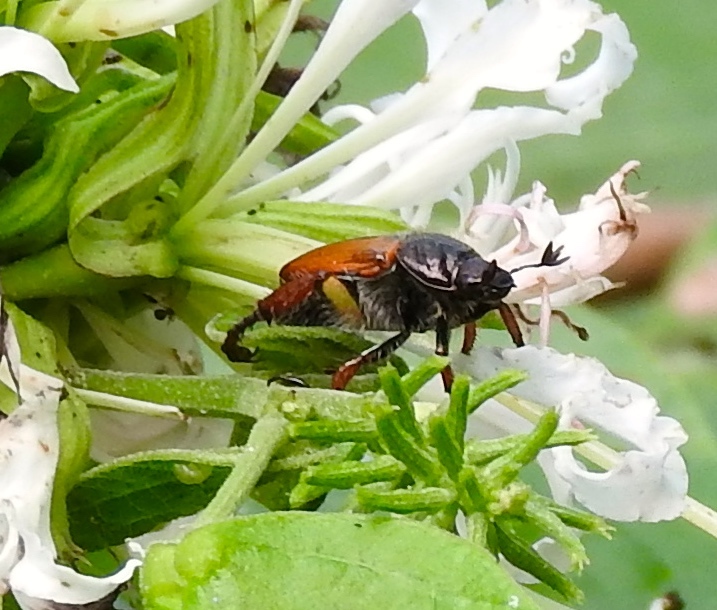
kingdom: Animalia
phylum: Arthropoda
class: Insecta
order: Coleoptera
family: Scarabaeidae
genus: Strigoderma
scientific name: Strigoderma
